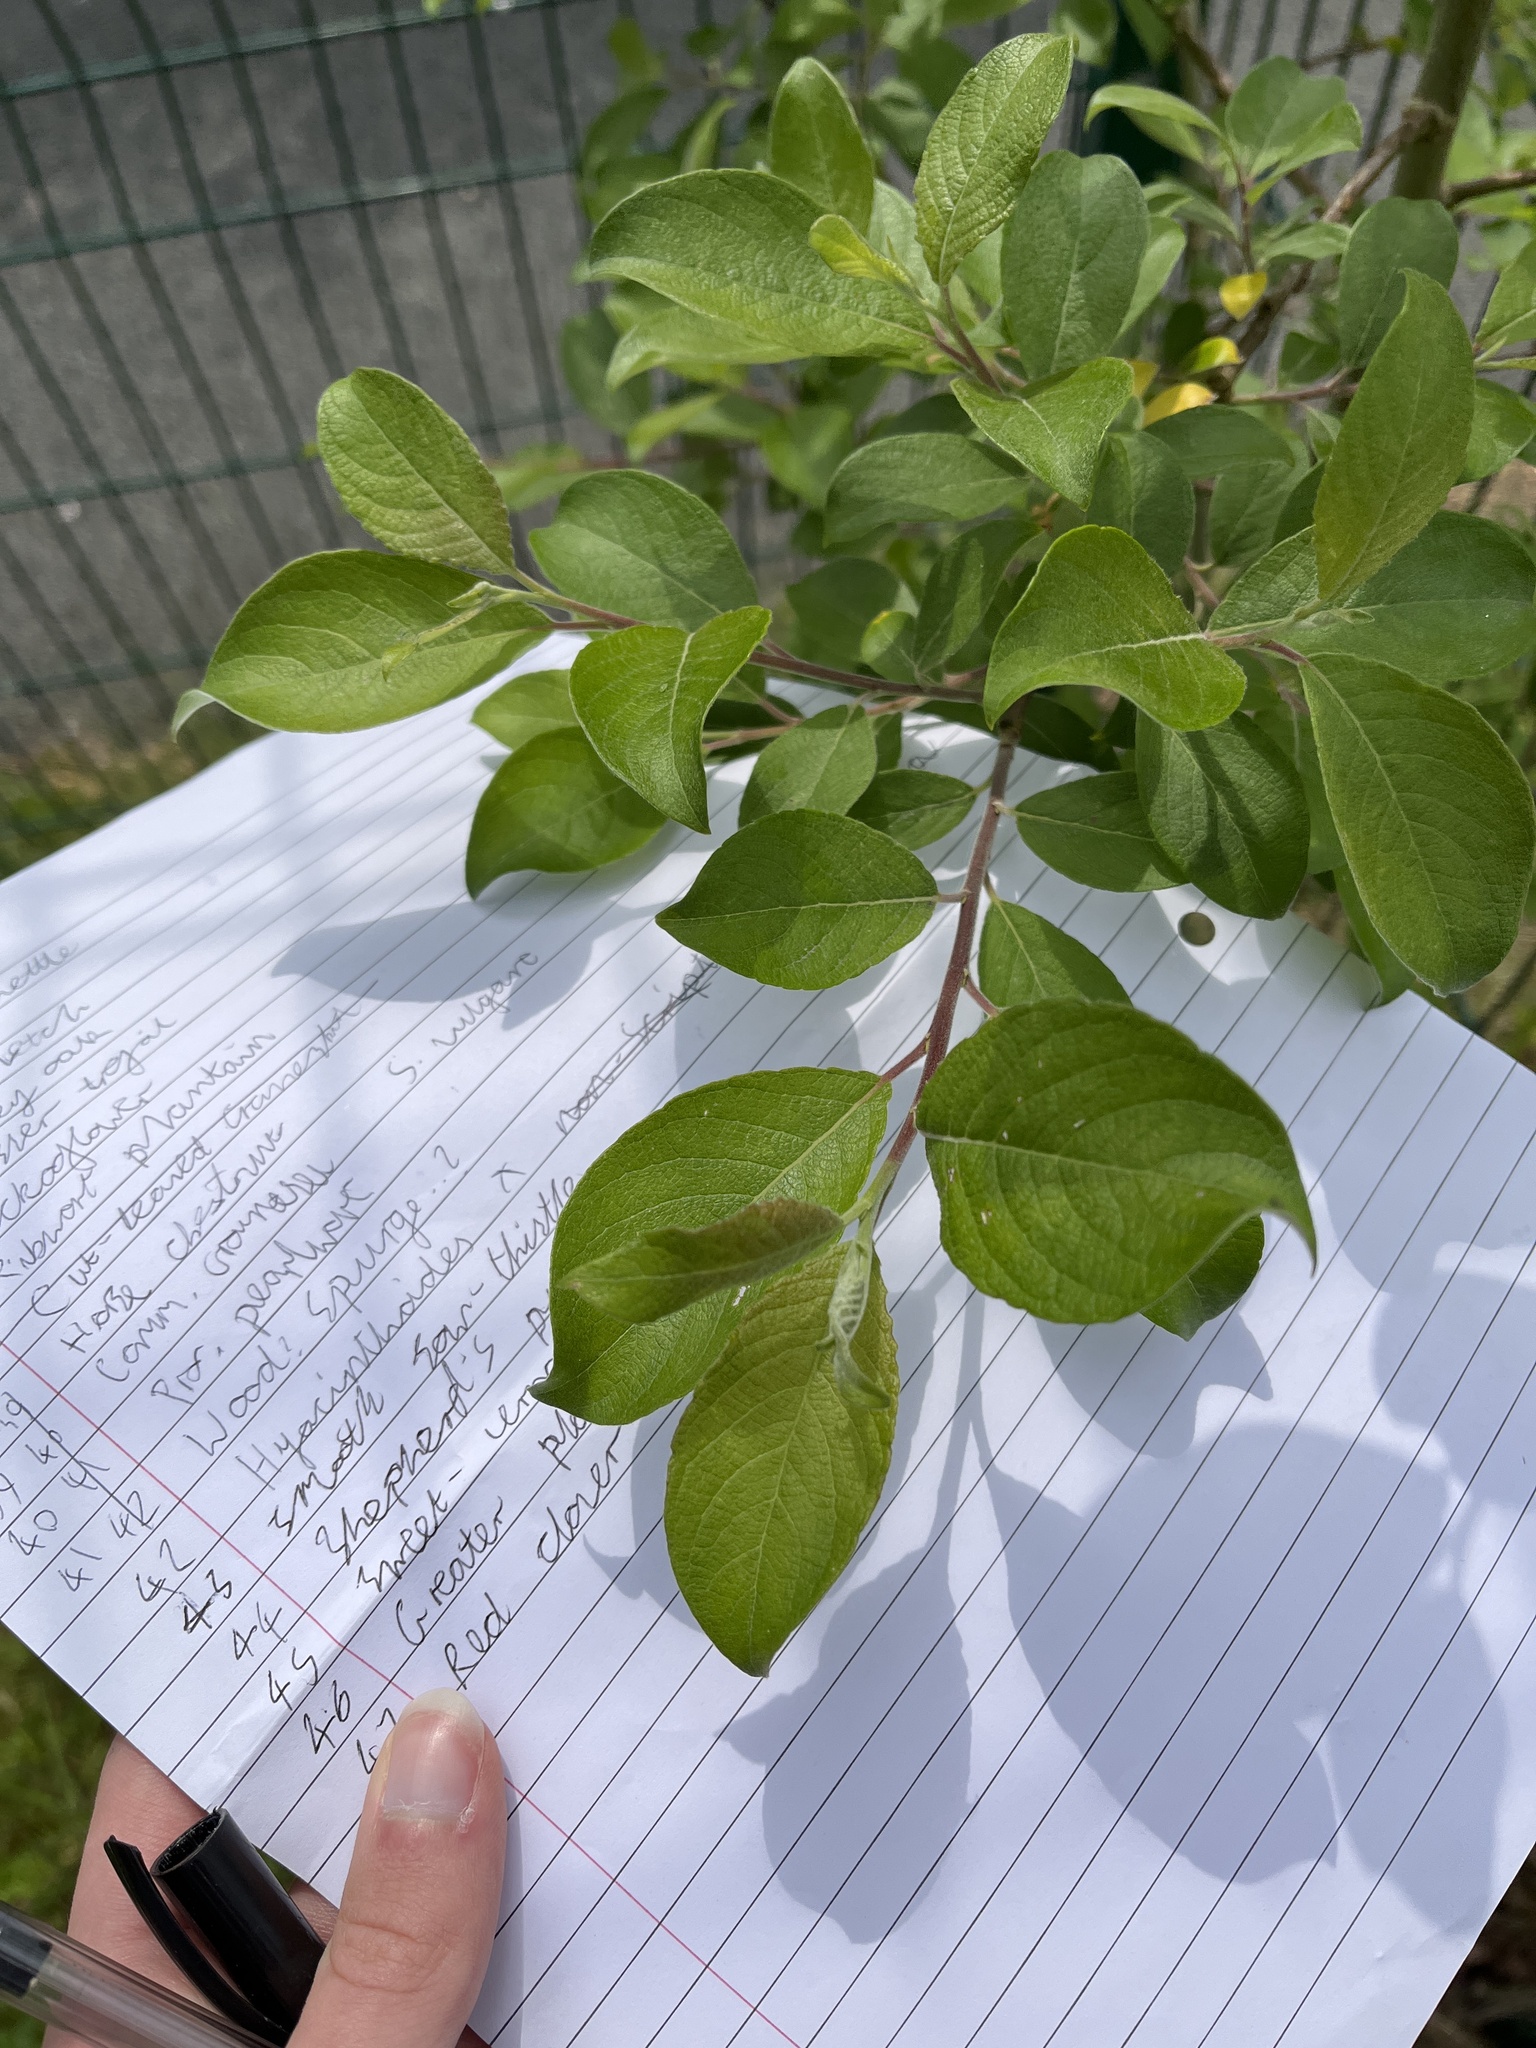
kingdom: Plantae
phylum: Tracheophyta
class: Magnoliopsida
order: Malpighiales
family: Salicaceae
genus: Salix
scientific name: Salix caprea
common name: Goat willow
